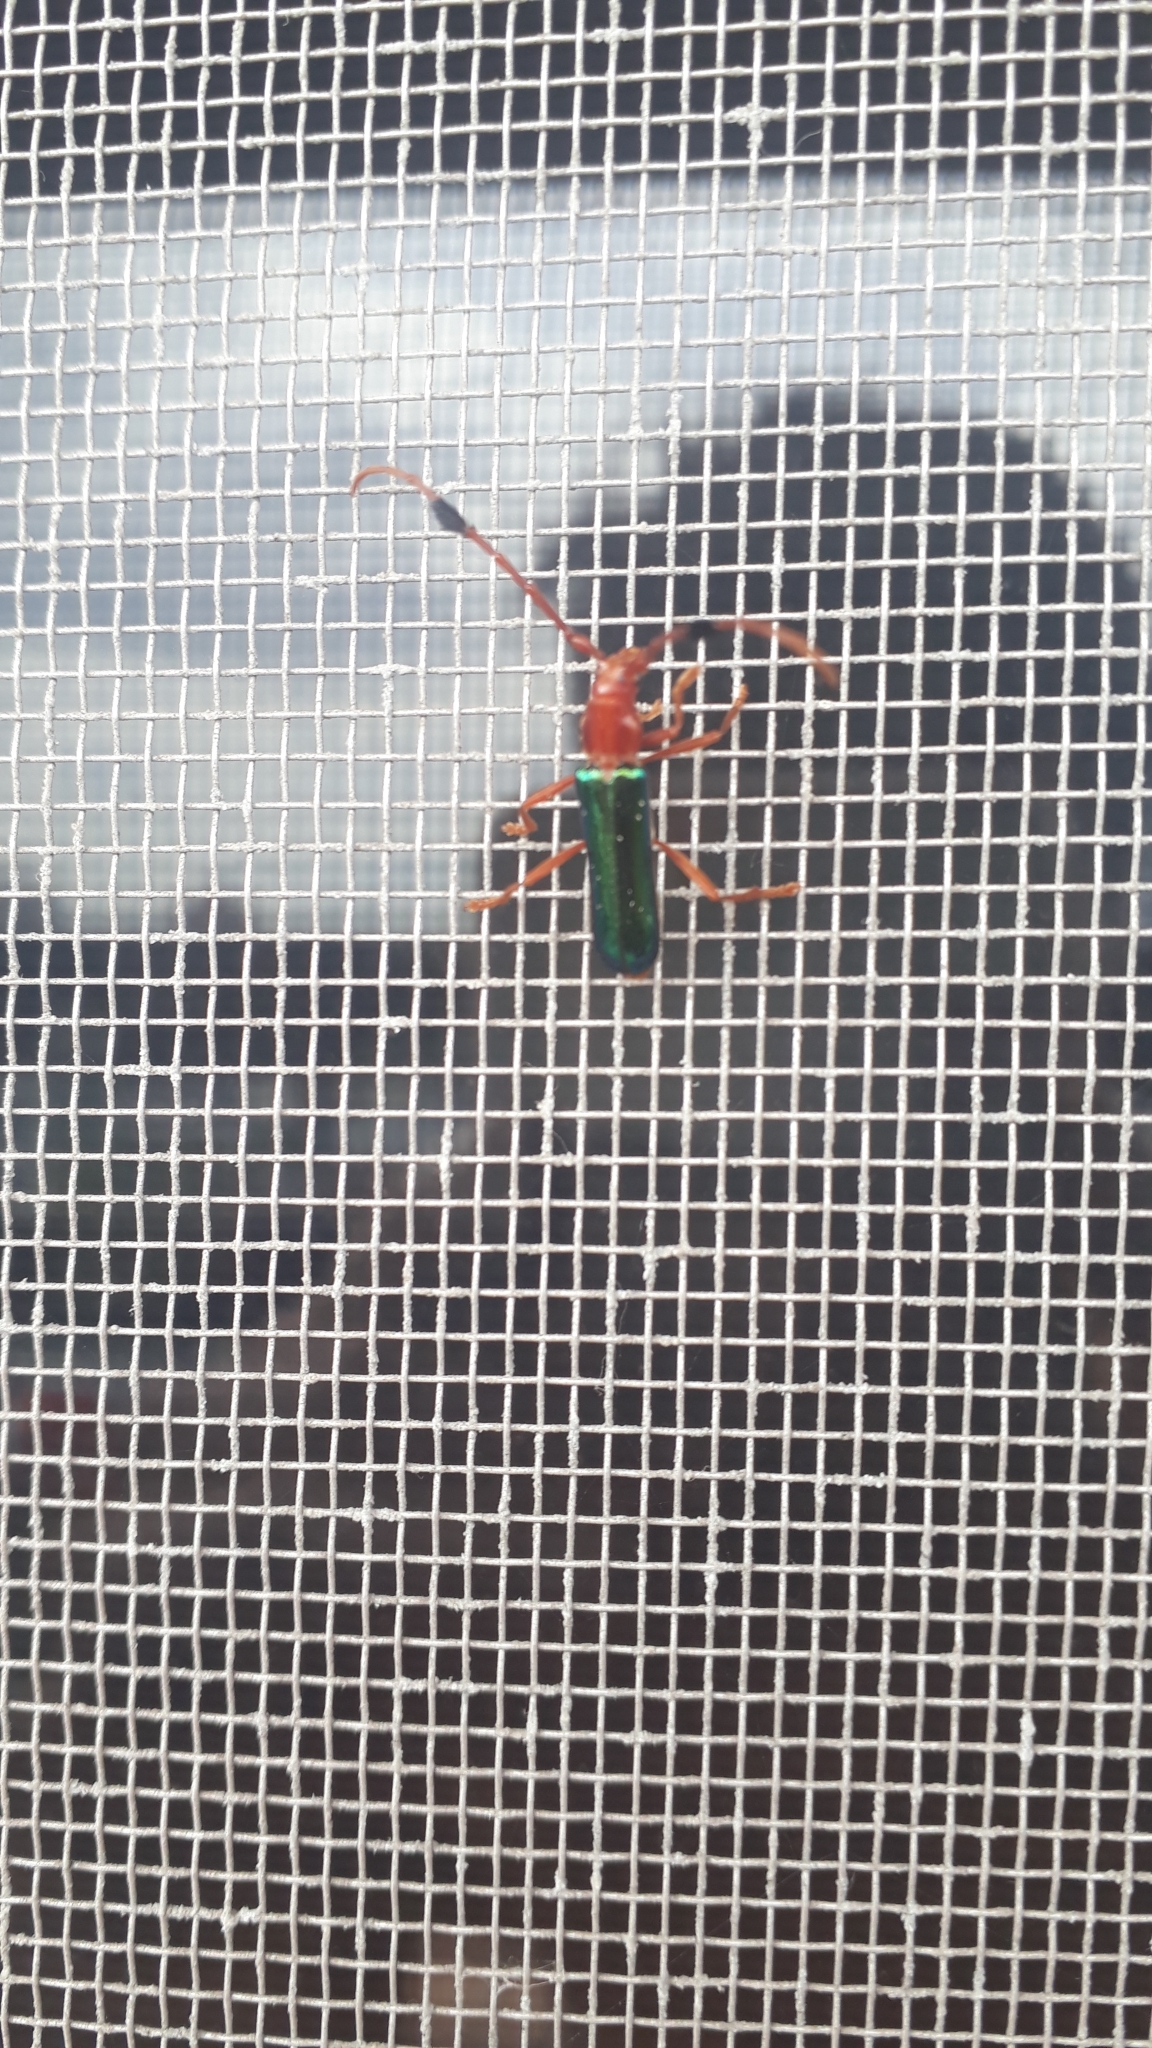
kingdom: Animalia
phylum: Arthropoda
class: Insecta
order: Coleoptera
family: Cerambycidae
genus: Compsocerus
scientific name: Compsocerus violaceus
